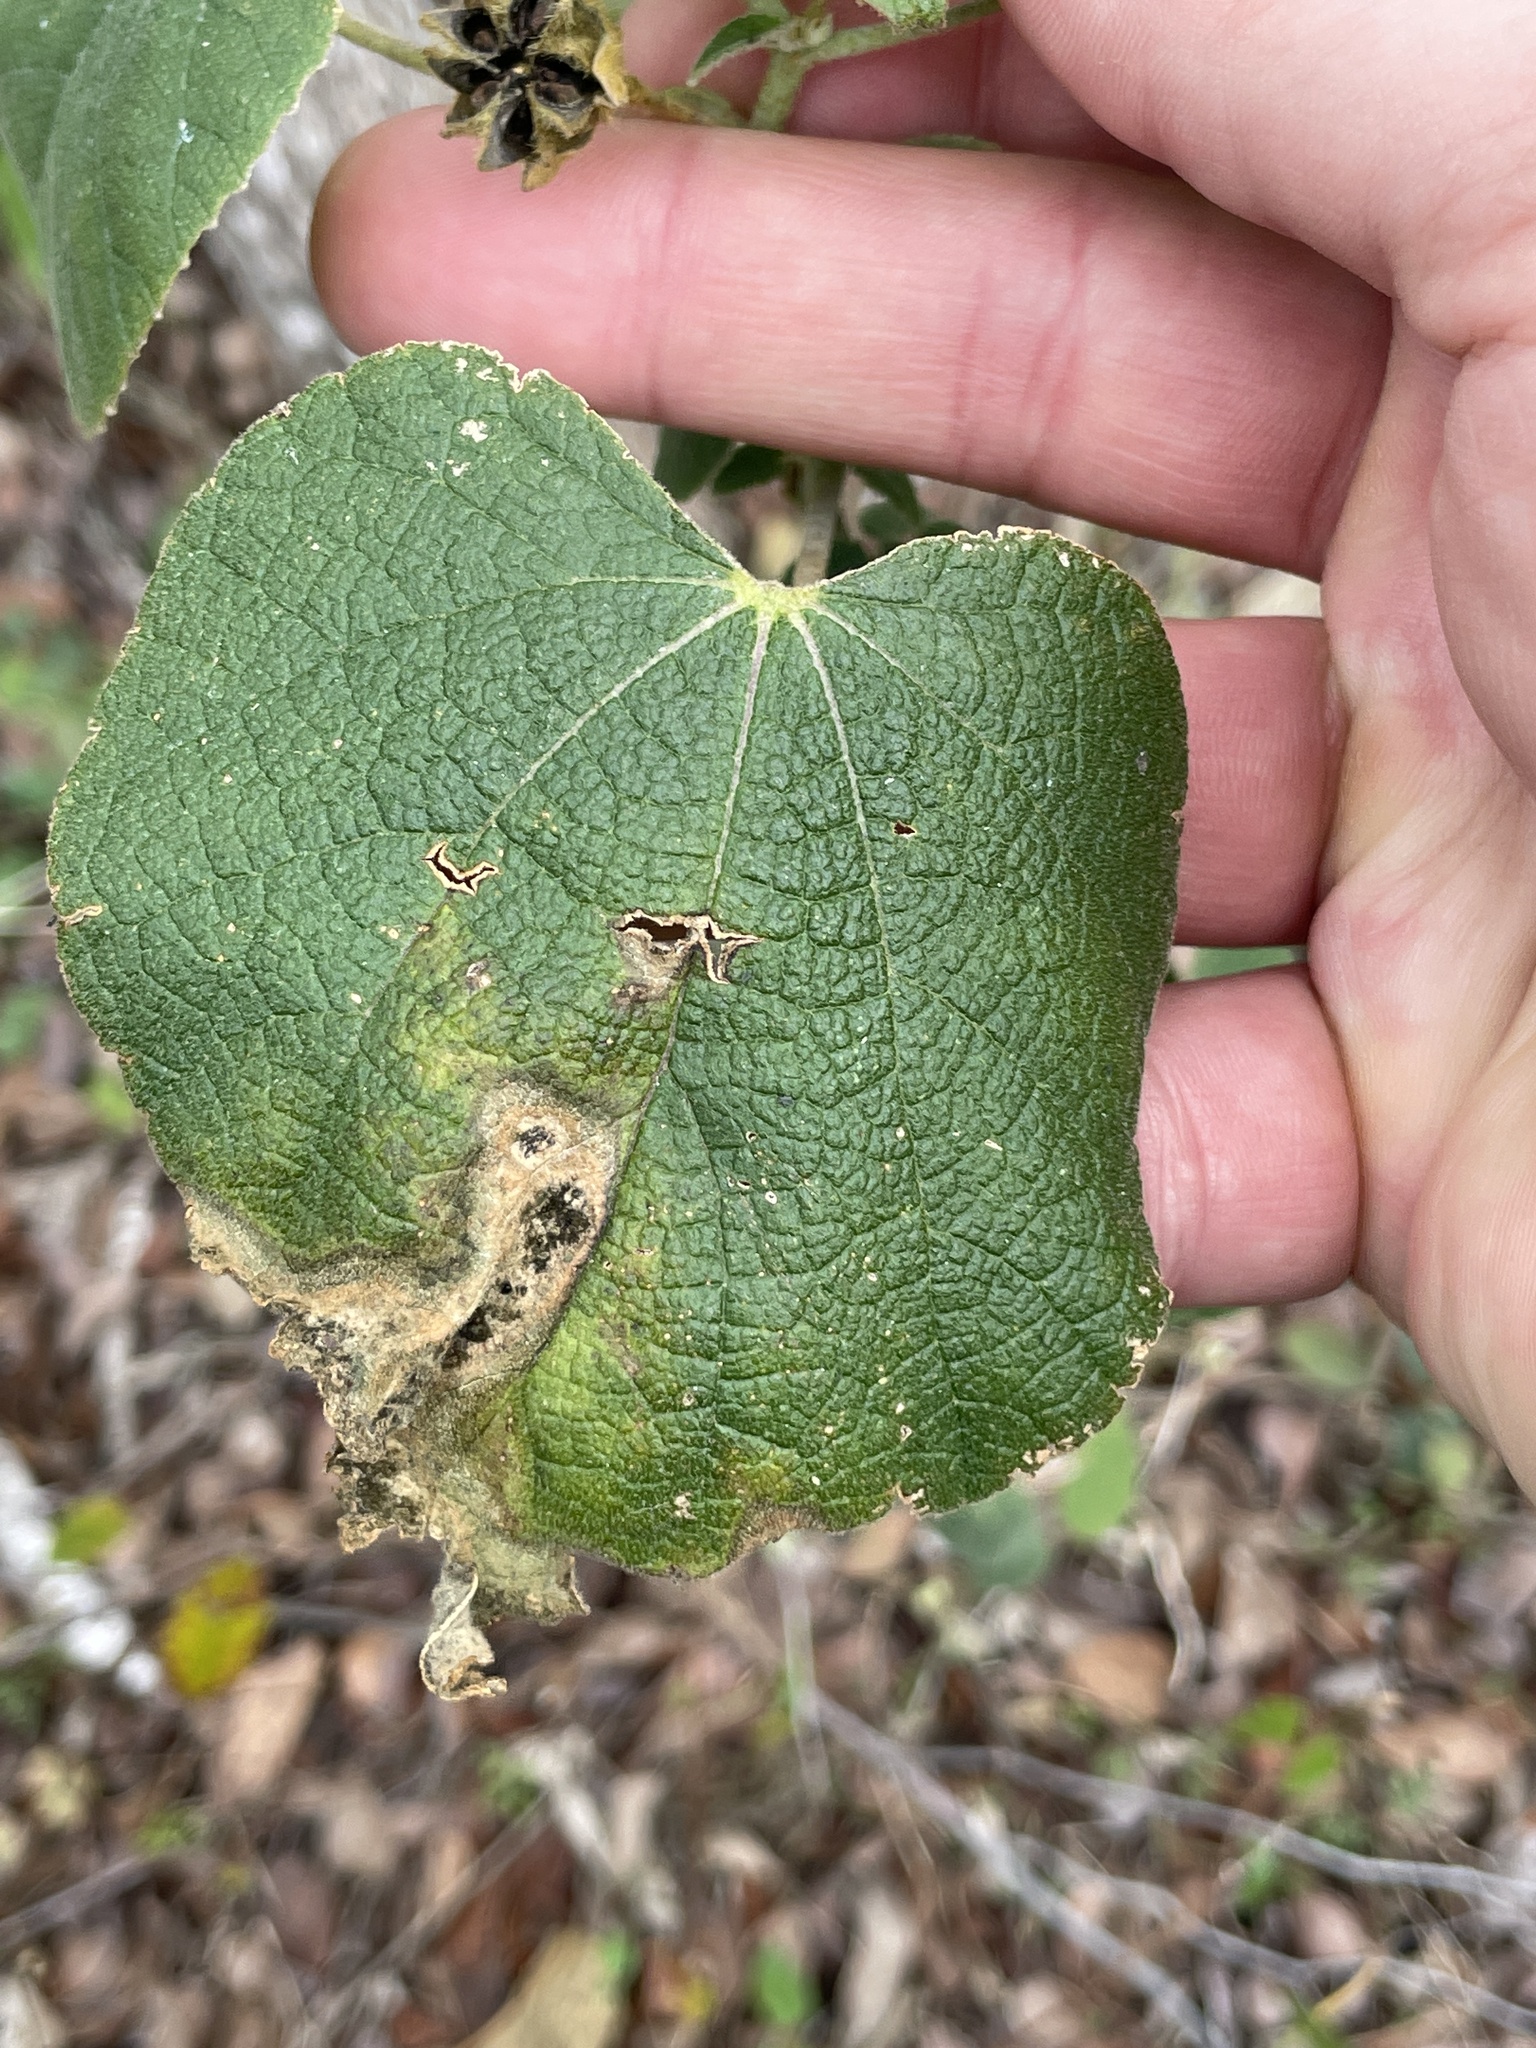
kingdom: Plantae
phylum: Tracheophyta
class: Magnoliopsida
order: Malvales
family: Malvaceae
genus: Allowissadula
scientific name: Allowissadula lozanoi
